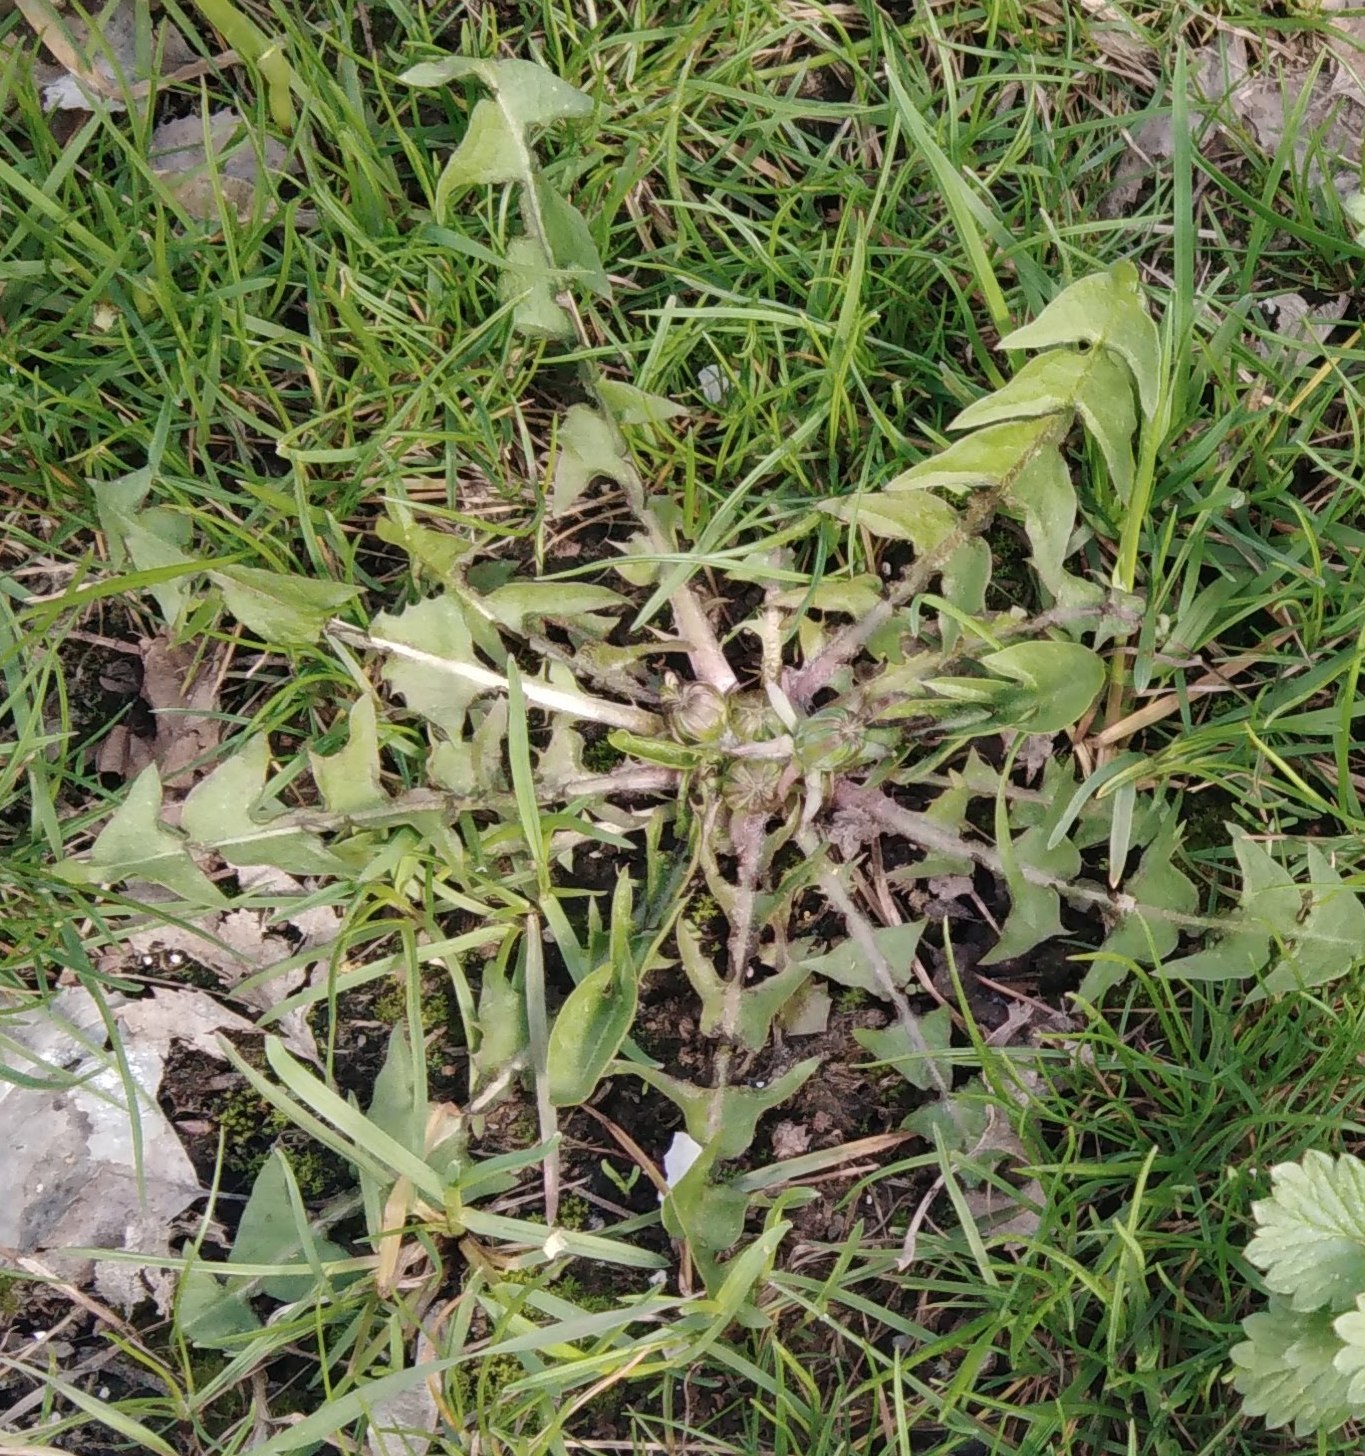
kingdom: Plantae
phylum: Tracheophyta
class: Magnoliopsida
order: Asterales
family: Asteraceae
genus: Taraxacum
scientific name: Taraxacum officinale
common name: Common dandelion
